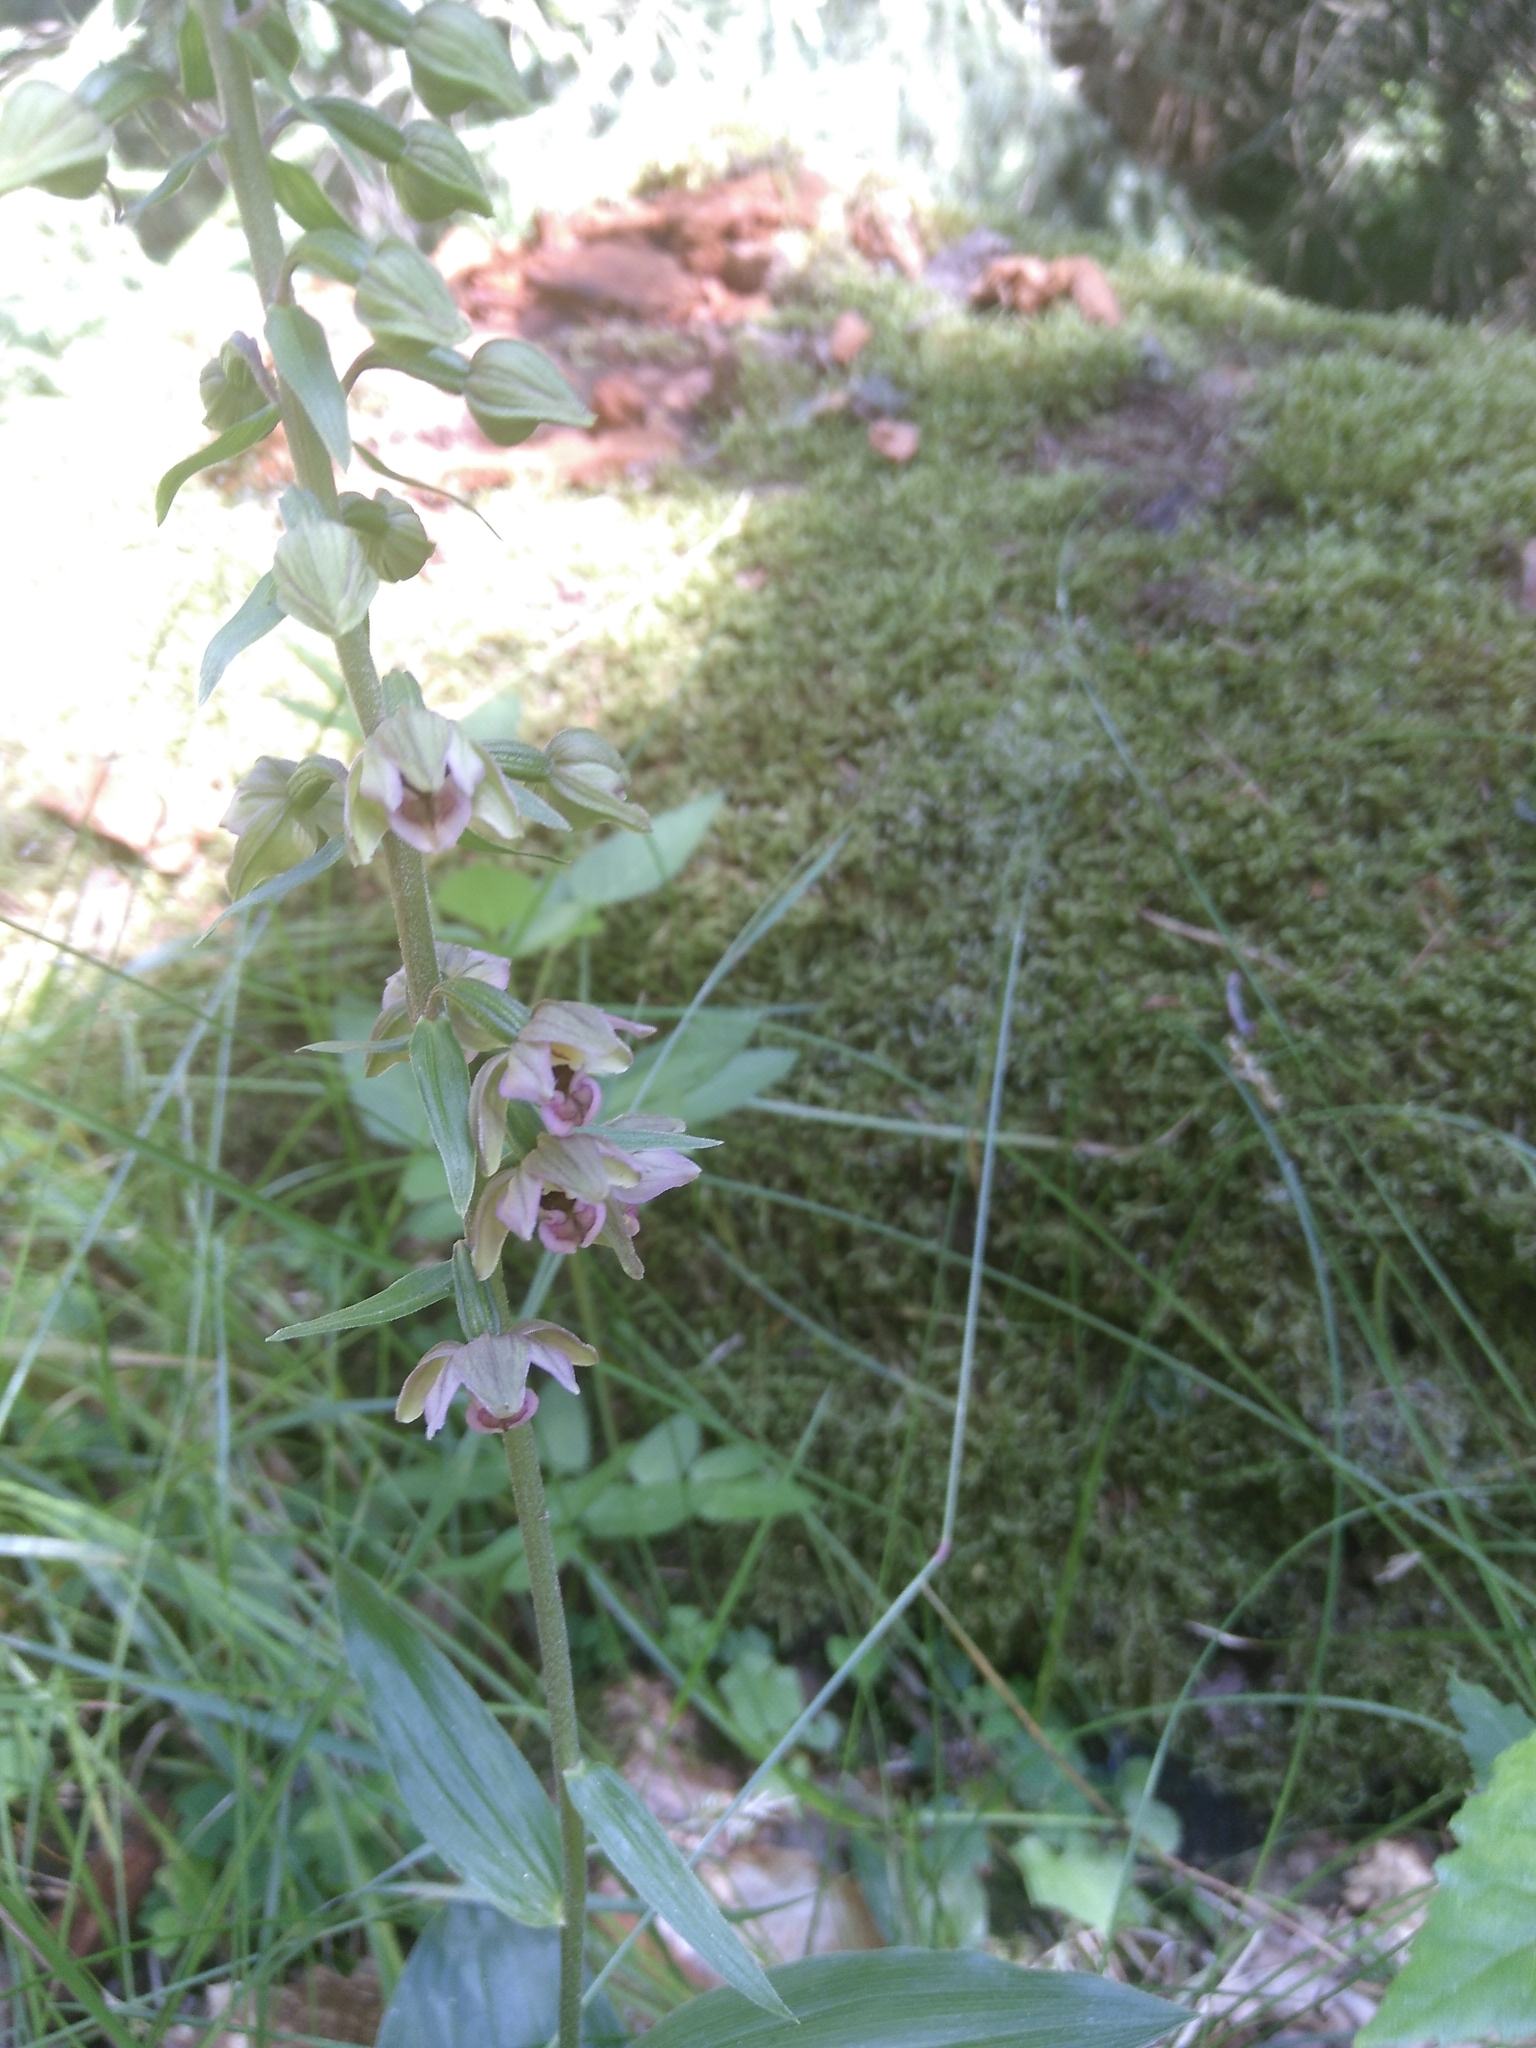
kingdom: Plantae
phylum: Tracheophyta
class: Liliopsida
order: Asparagales
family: Orchidaceae
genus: Epipactis
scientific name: Epipactis helleborine
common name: Broad-leaved helleborine
